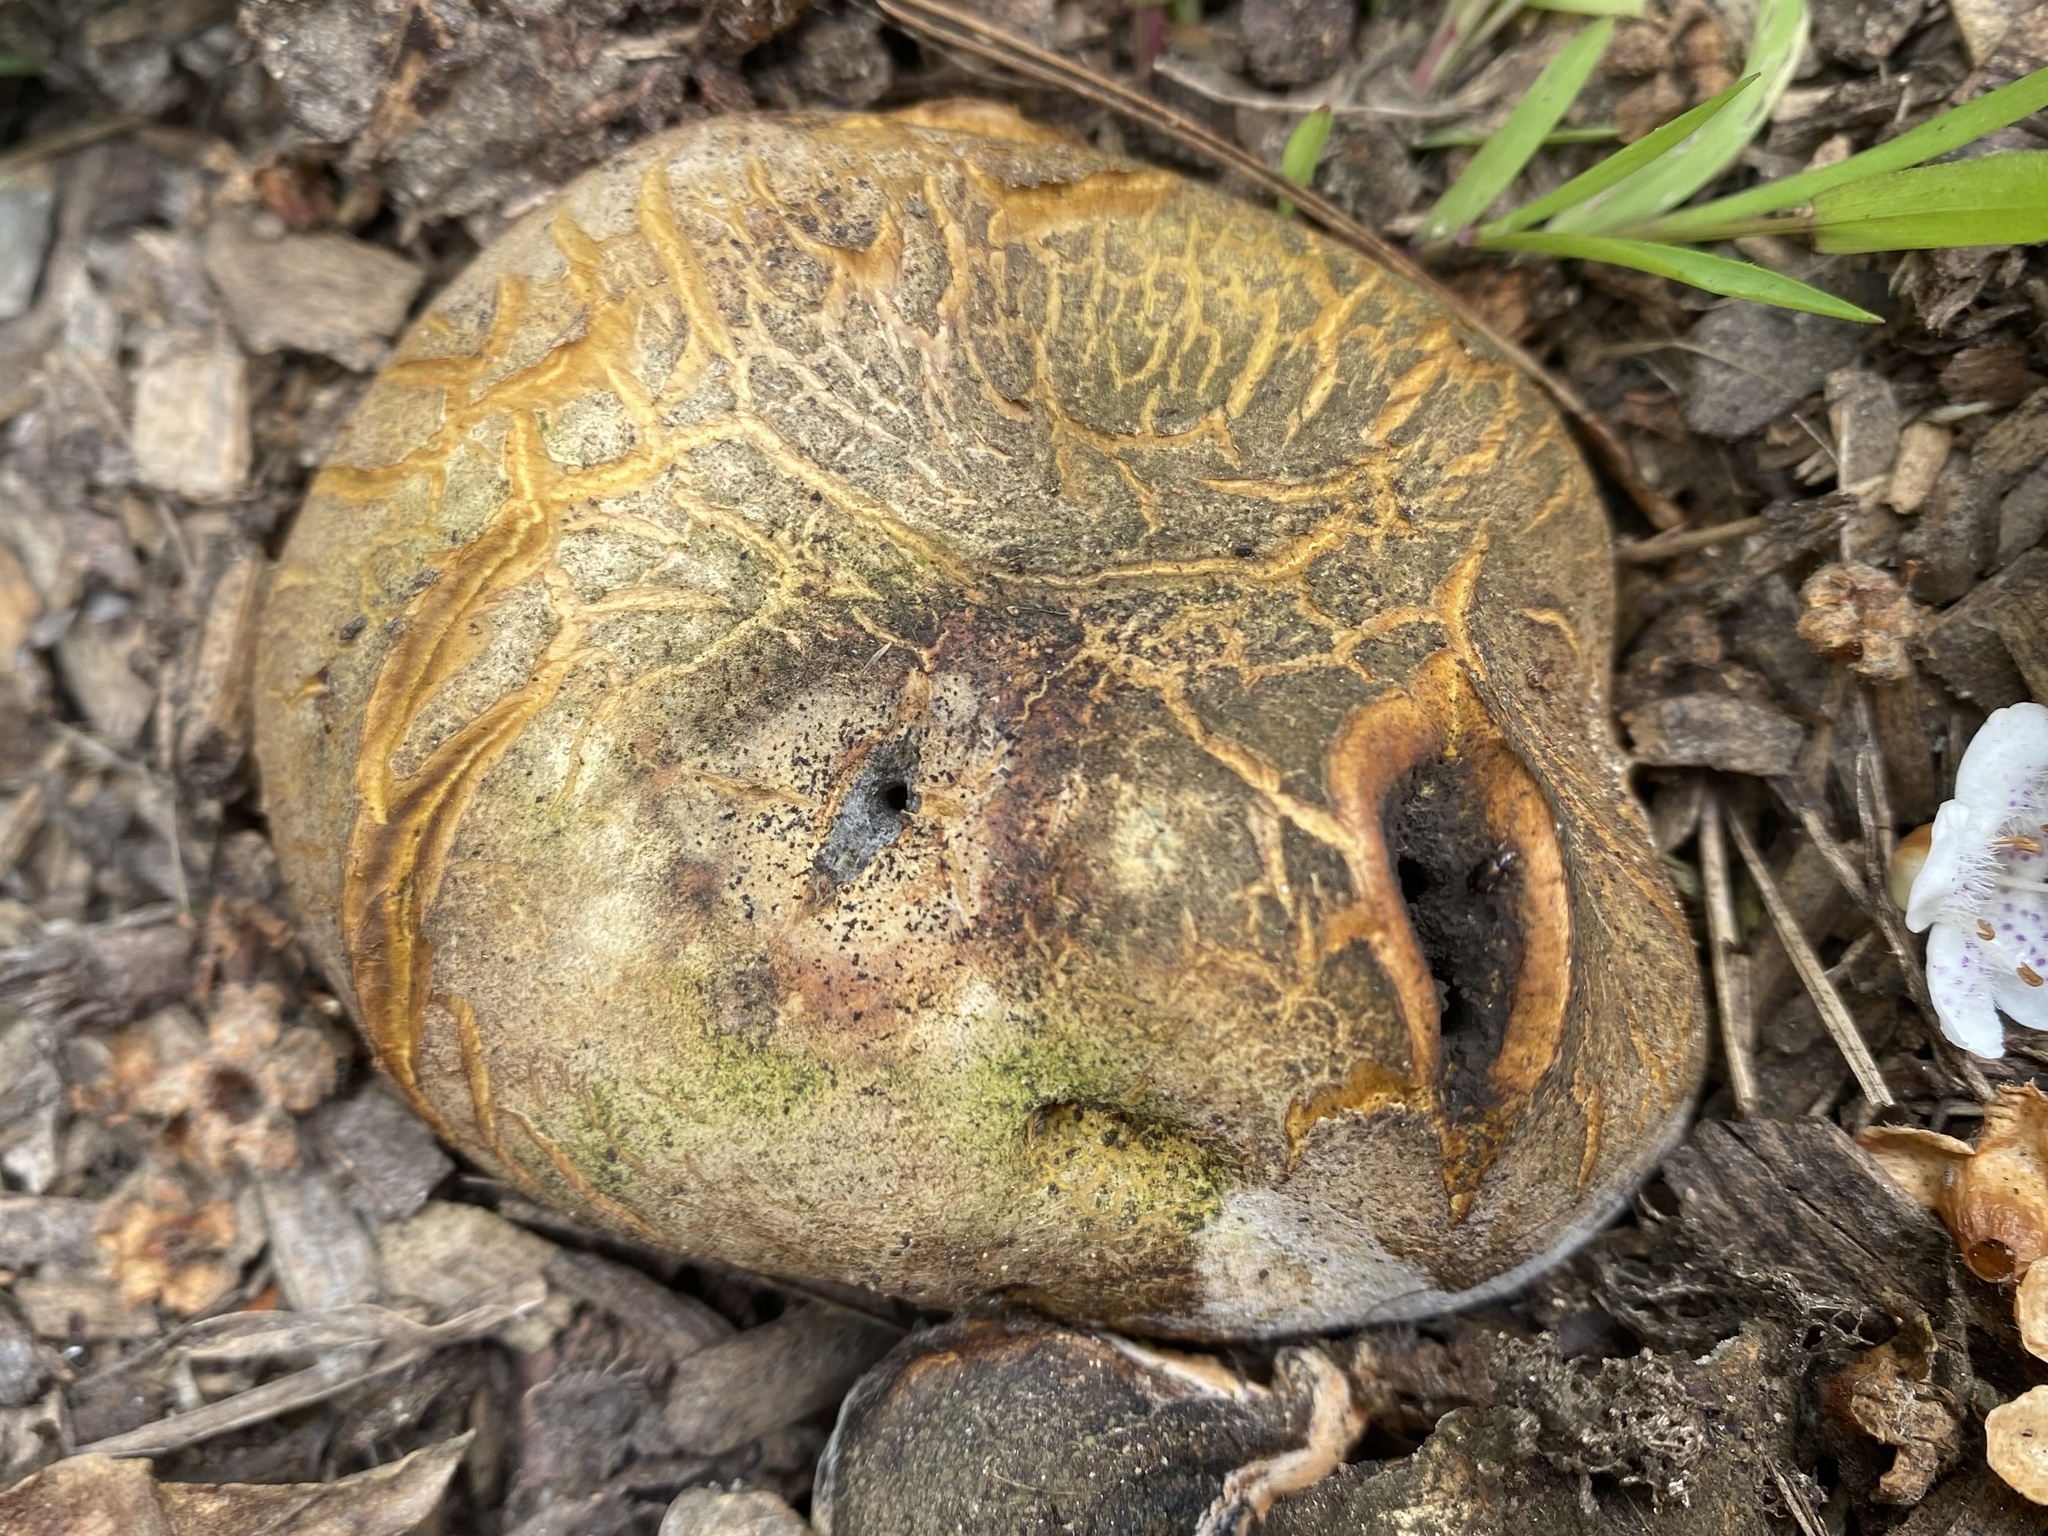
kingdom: Fungi
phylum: Basidiomycota
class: Agaricomycetes
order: Boletales
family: Sclerodermataceae
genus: Scleroderma
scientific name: Scleroderma cepa
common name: Onion earthball
